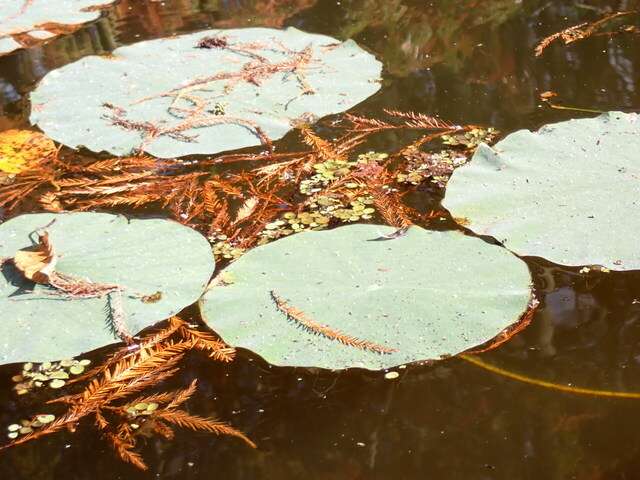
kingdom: Plantae
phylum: Tracheophyta
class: Magnoliopsida
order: Proteales
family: Nelumbonaceae
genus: Nelumbo
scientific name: Nelumbo lutea
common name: American lotus
